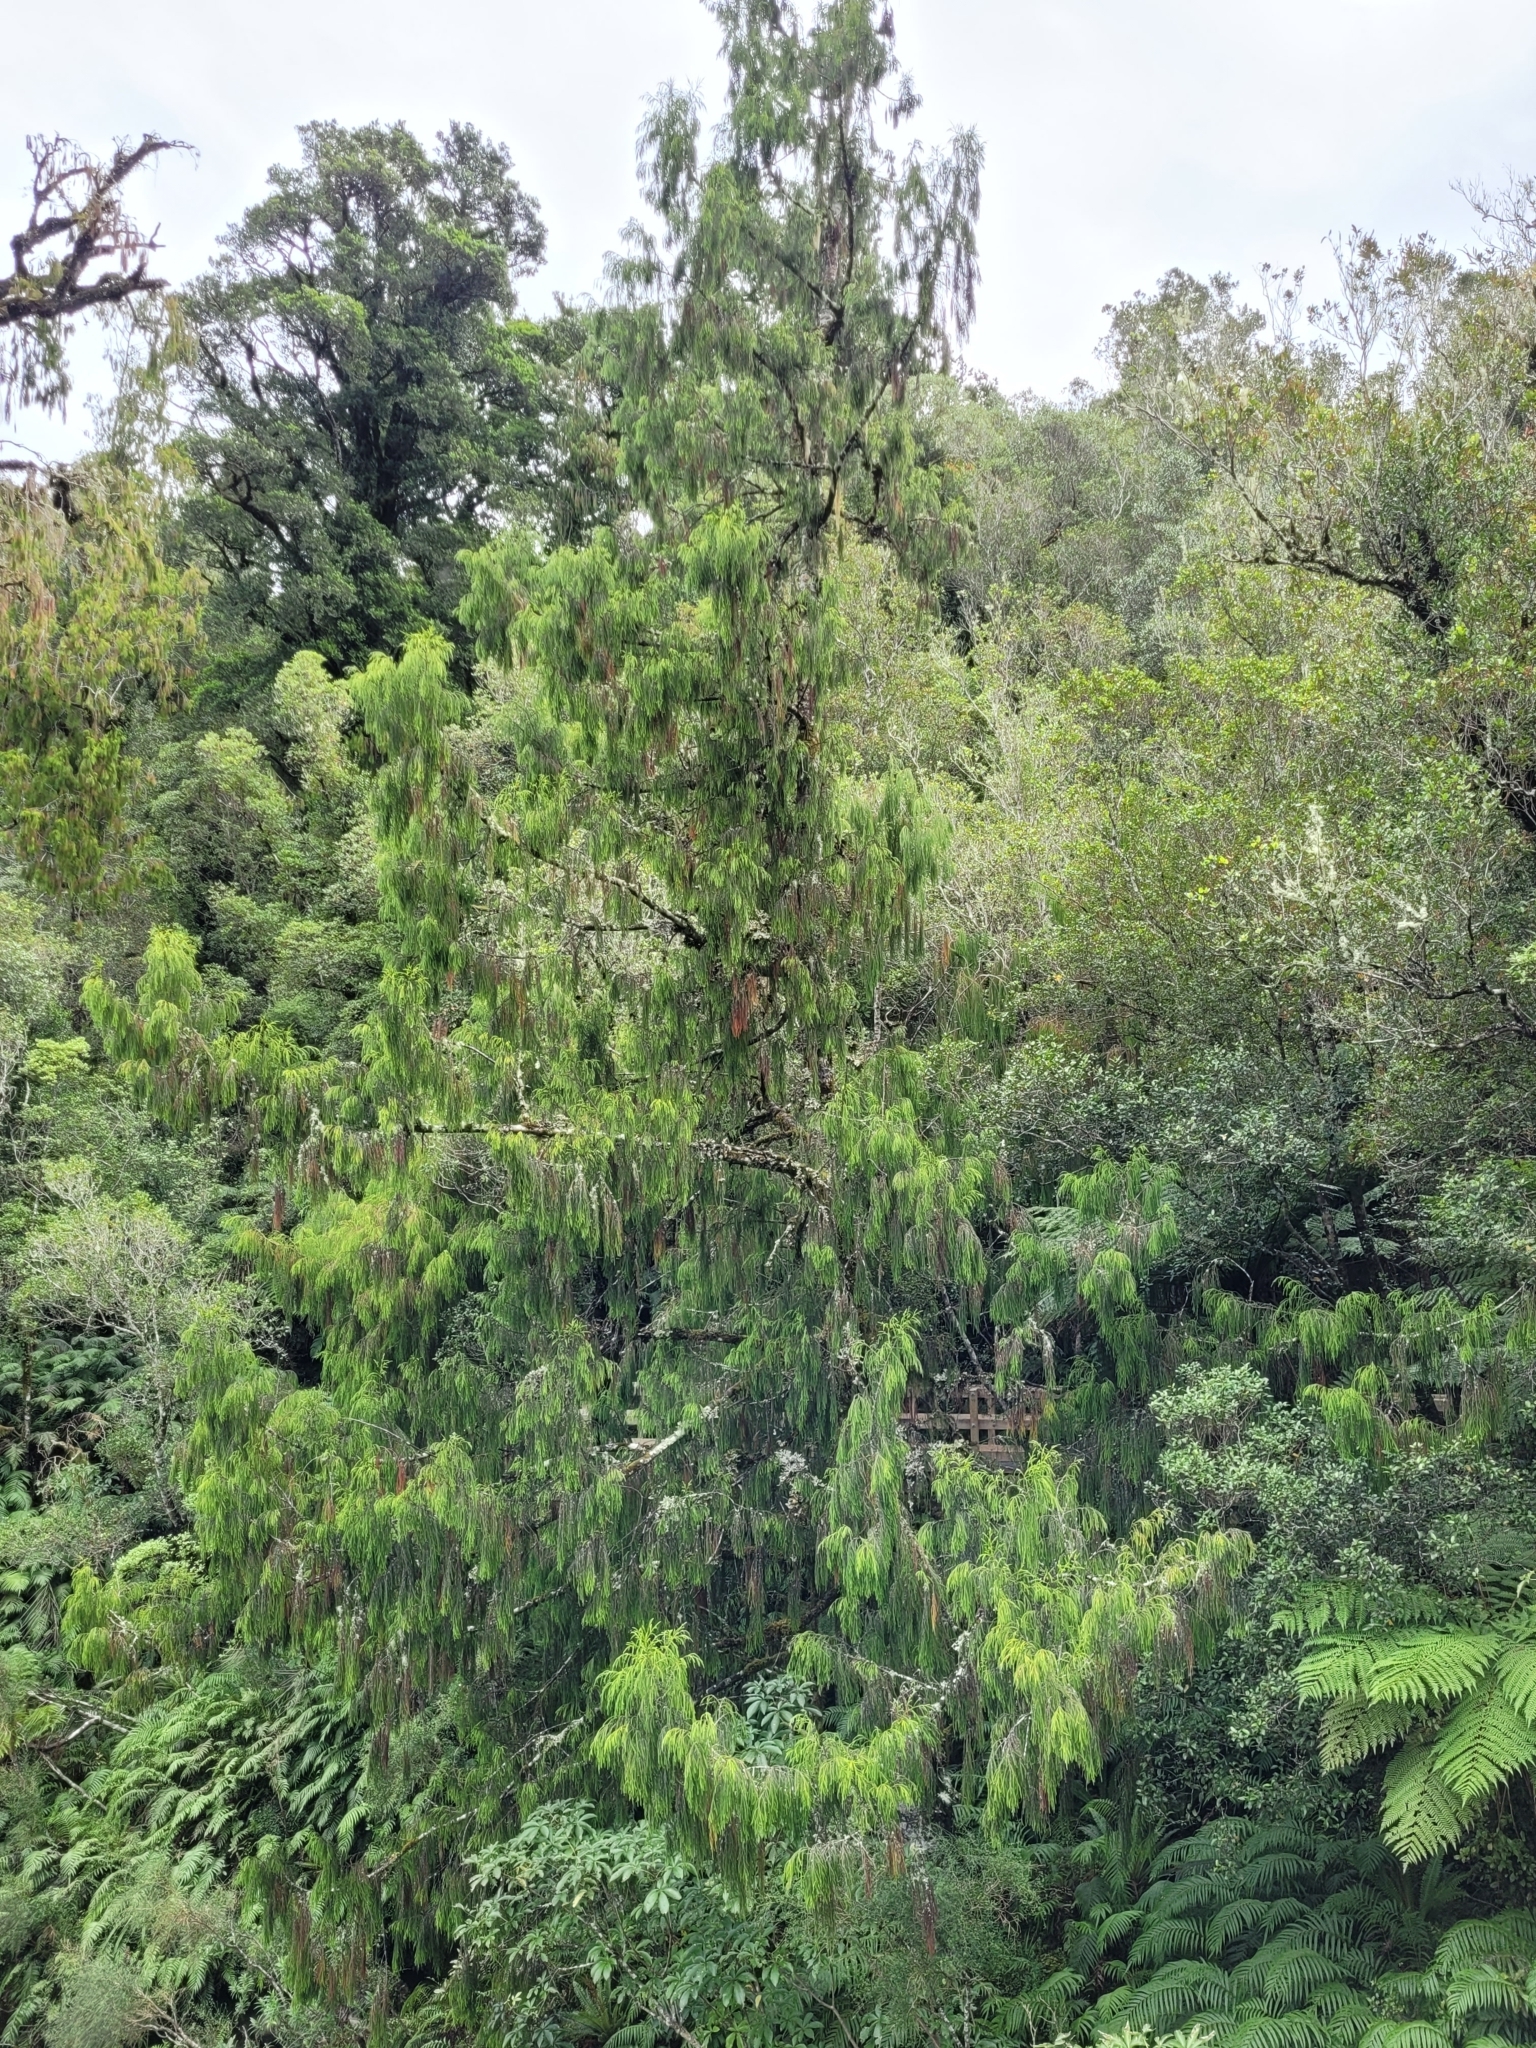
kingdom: Plantae
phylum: Tracheophyta
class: Pinopsida
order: Pinales
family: Podocarpaceae
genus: Dacrydium
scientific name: Dacrydium cupressinum
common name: Red pine
